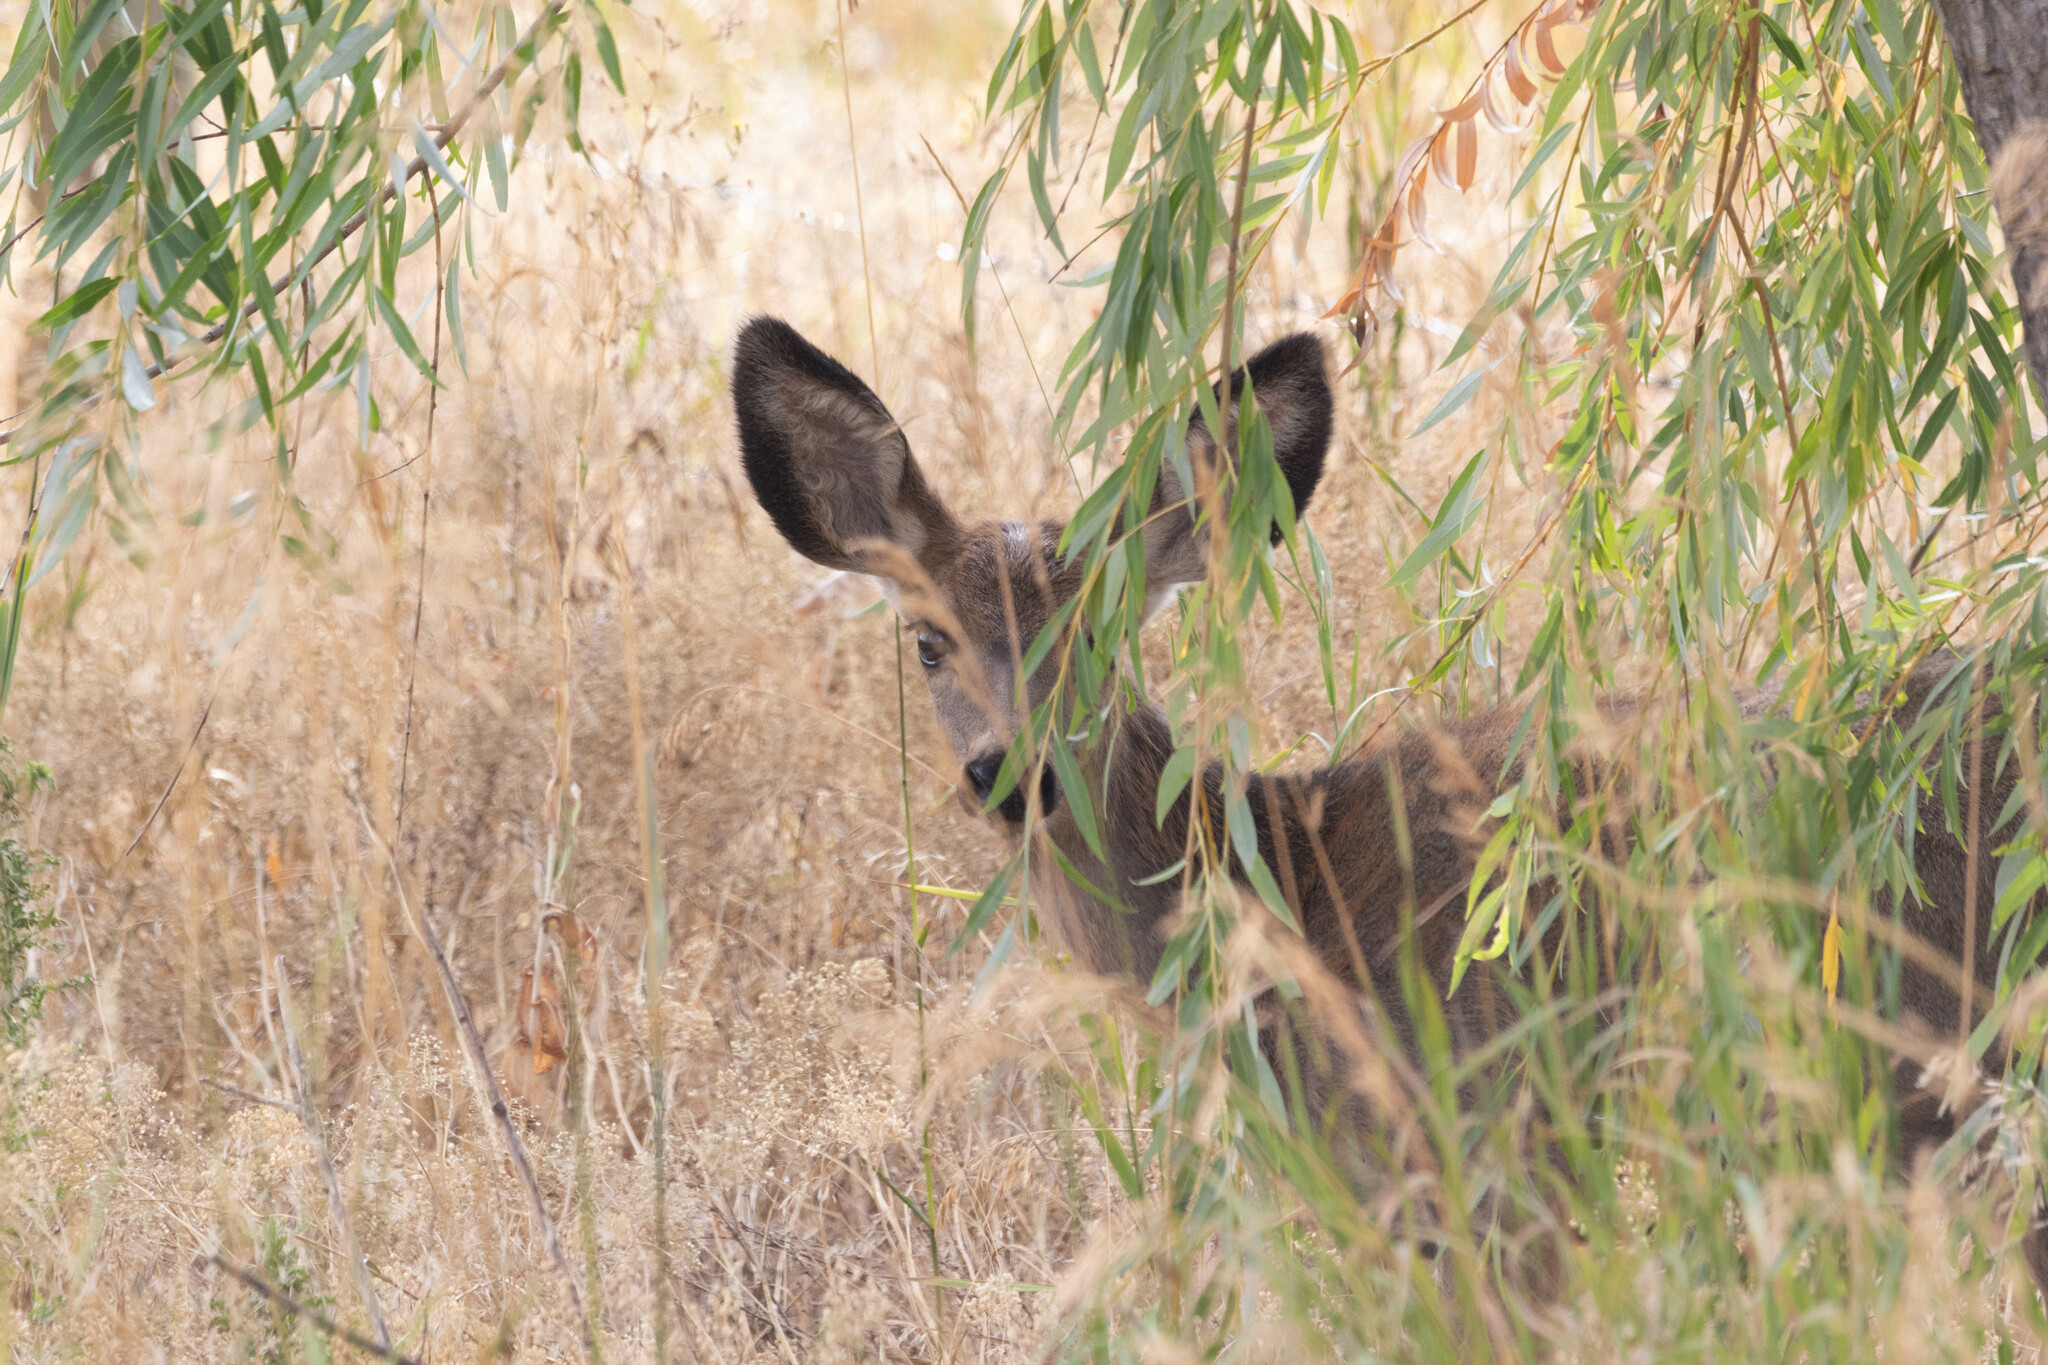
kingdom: Animalia
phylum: Chordata
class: Mammalia
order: Artiodactyla
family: Cervidae
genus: Odocoileus
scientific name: Odocoileus hemionus
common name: Mule deer
